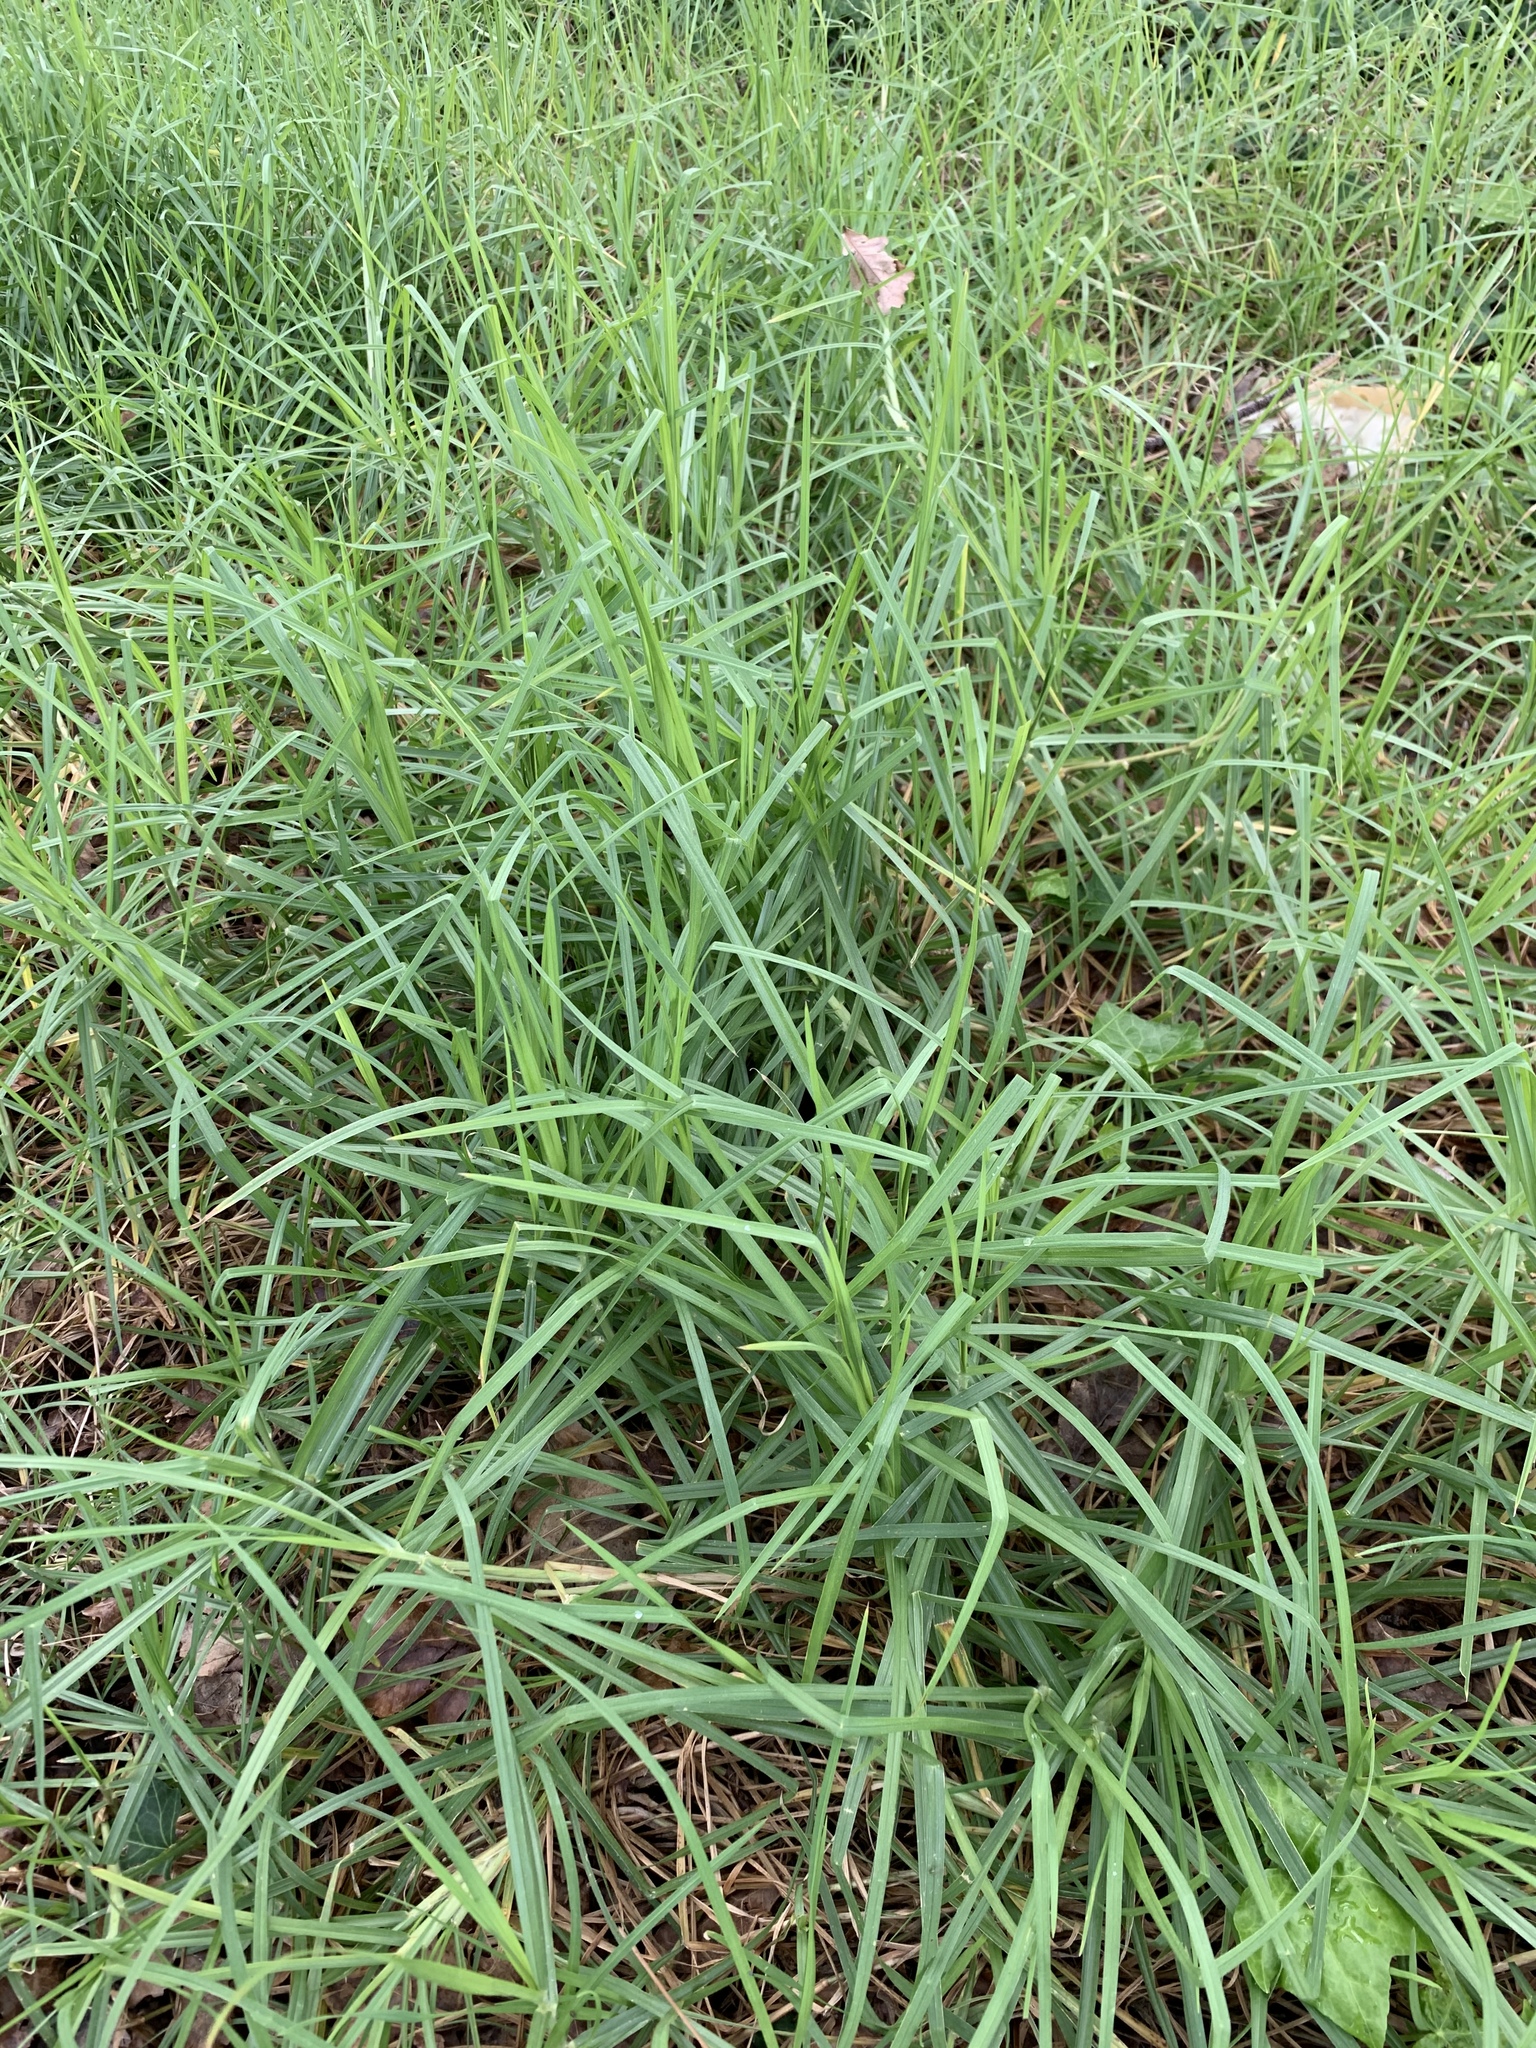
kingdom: Plantae
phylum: Tracheophyta
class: Liliopsida
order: Poales
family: Poaceae
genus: Cenchrus
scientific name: Cenchrus clandestinus
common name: Kikuyugrass
